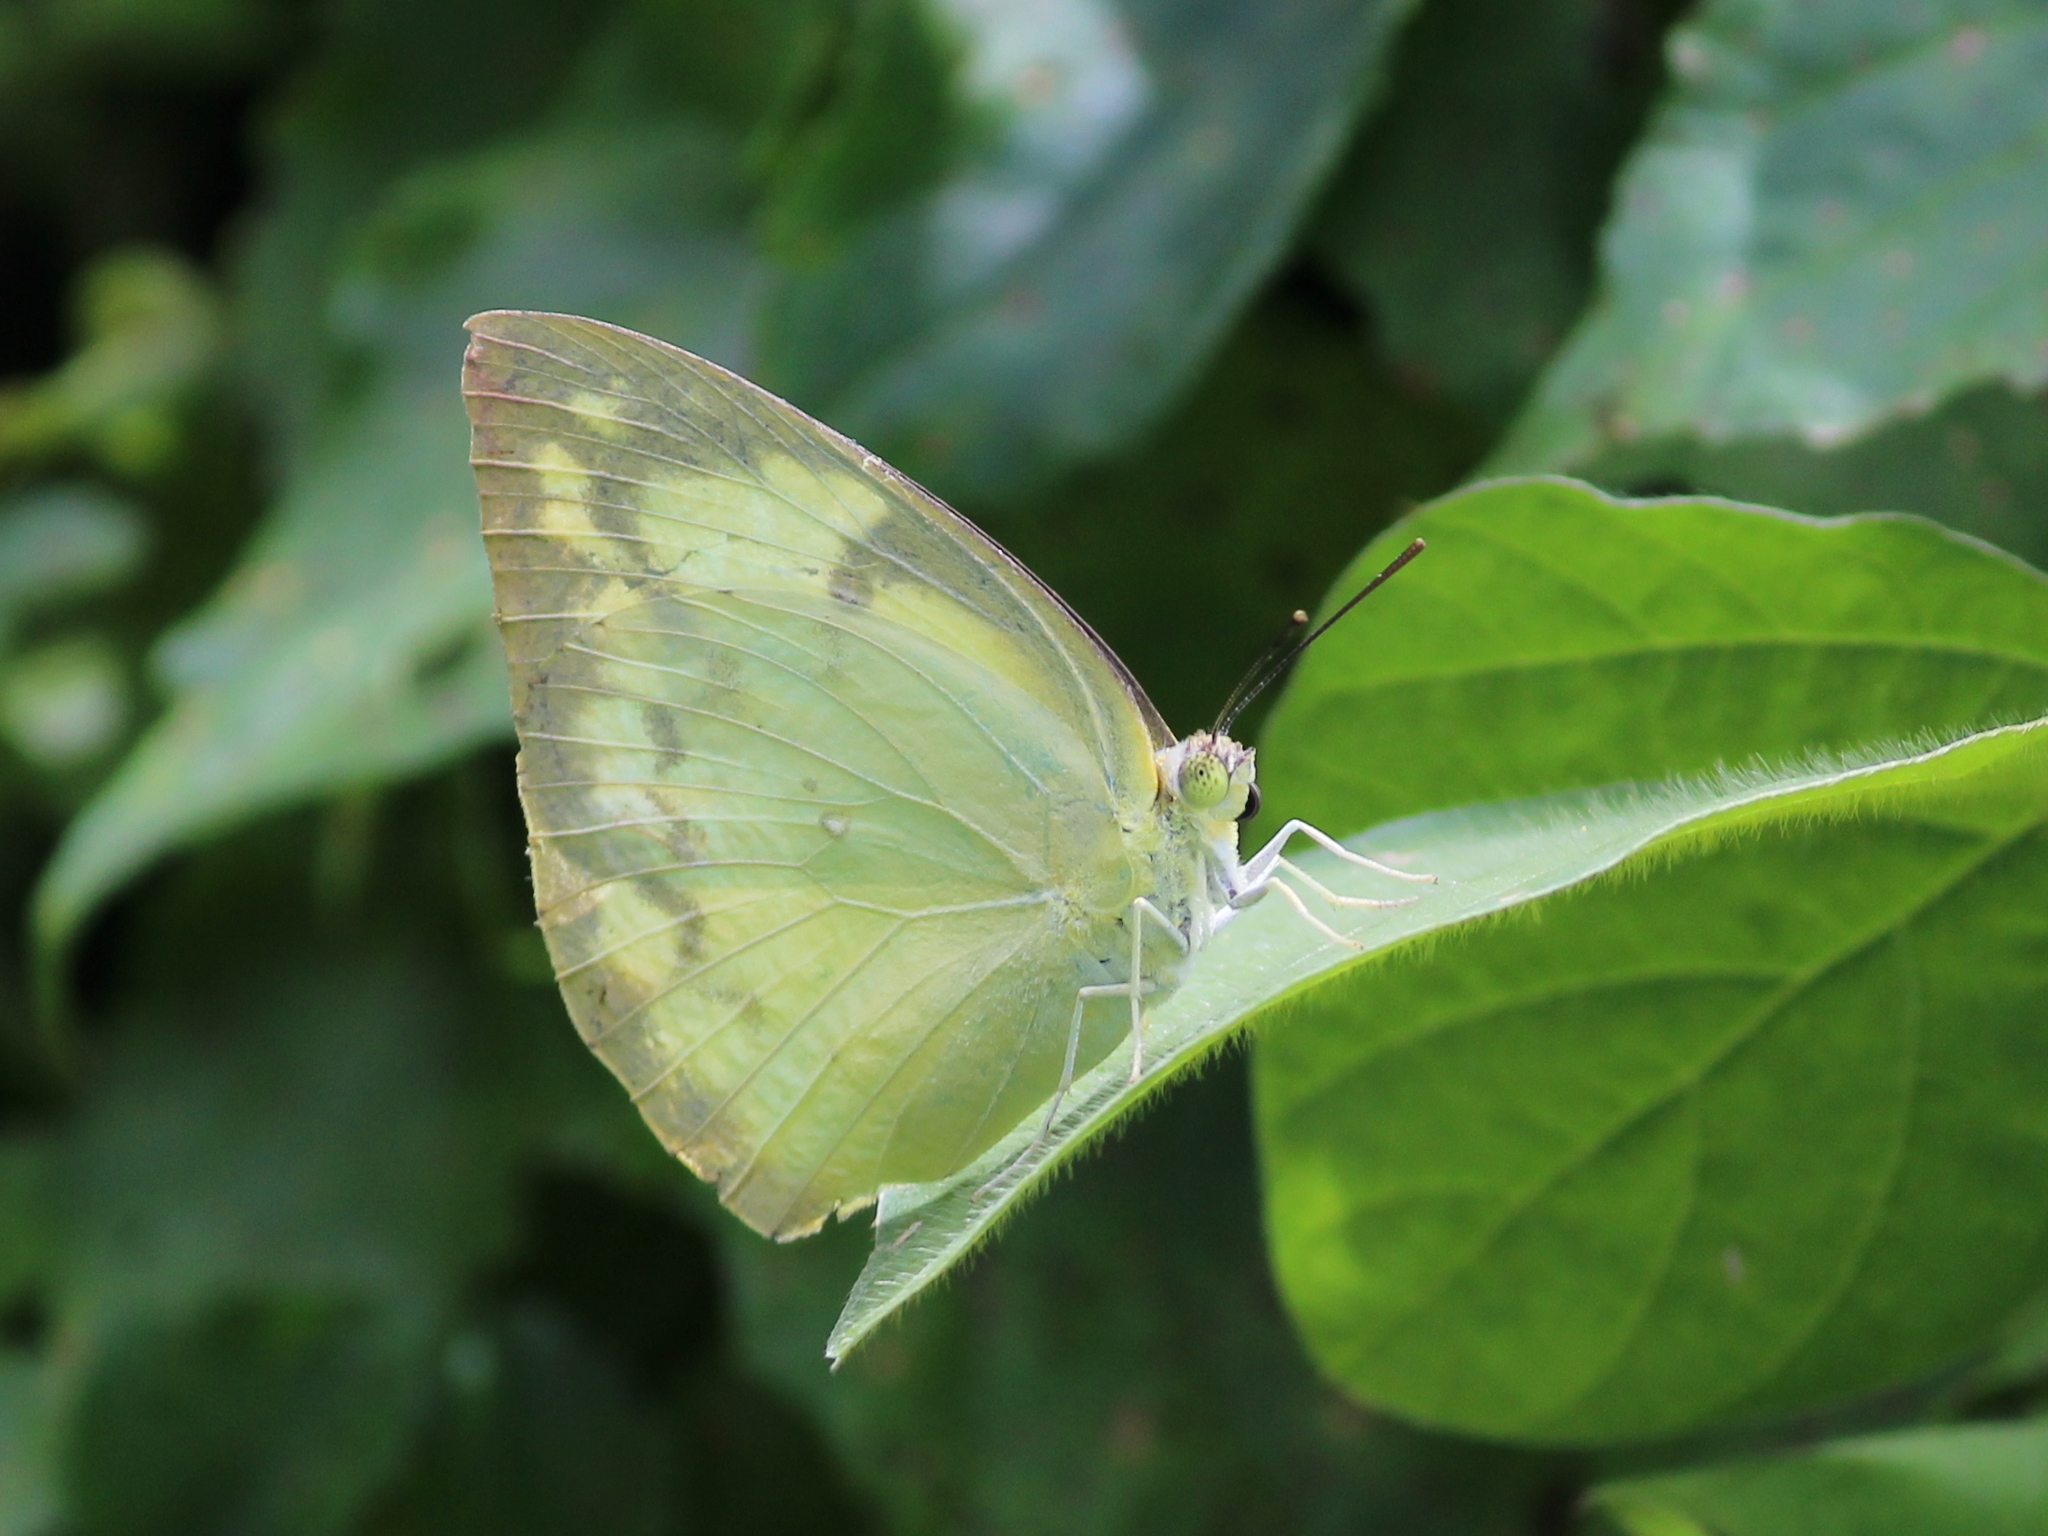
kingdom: Animalia
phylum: Arthropoda
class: Insecta
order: Lepidoptera
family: Pieridae
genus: Catopsilia
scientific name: Catopsilia pomona
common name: Common emigrant
